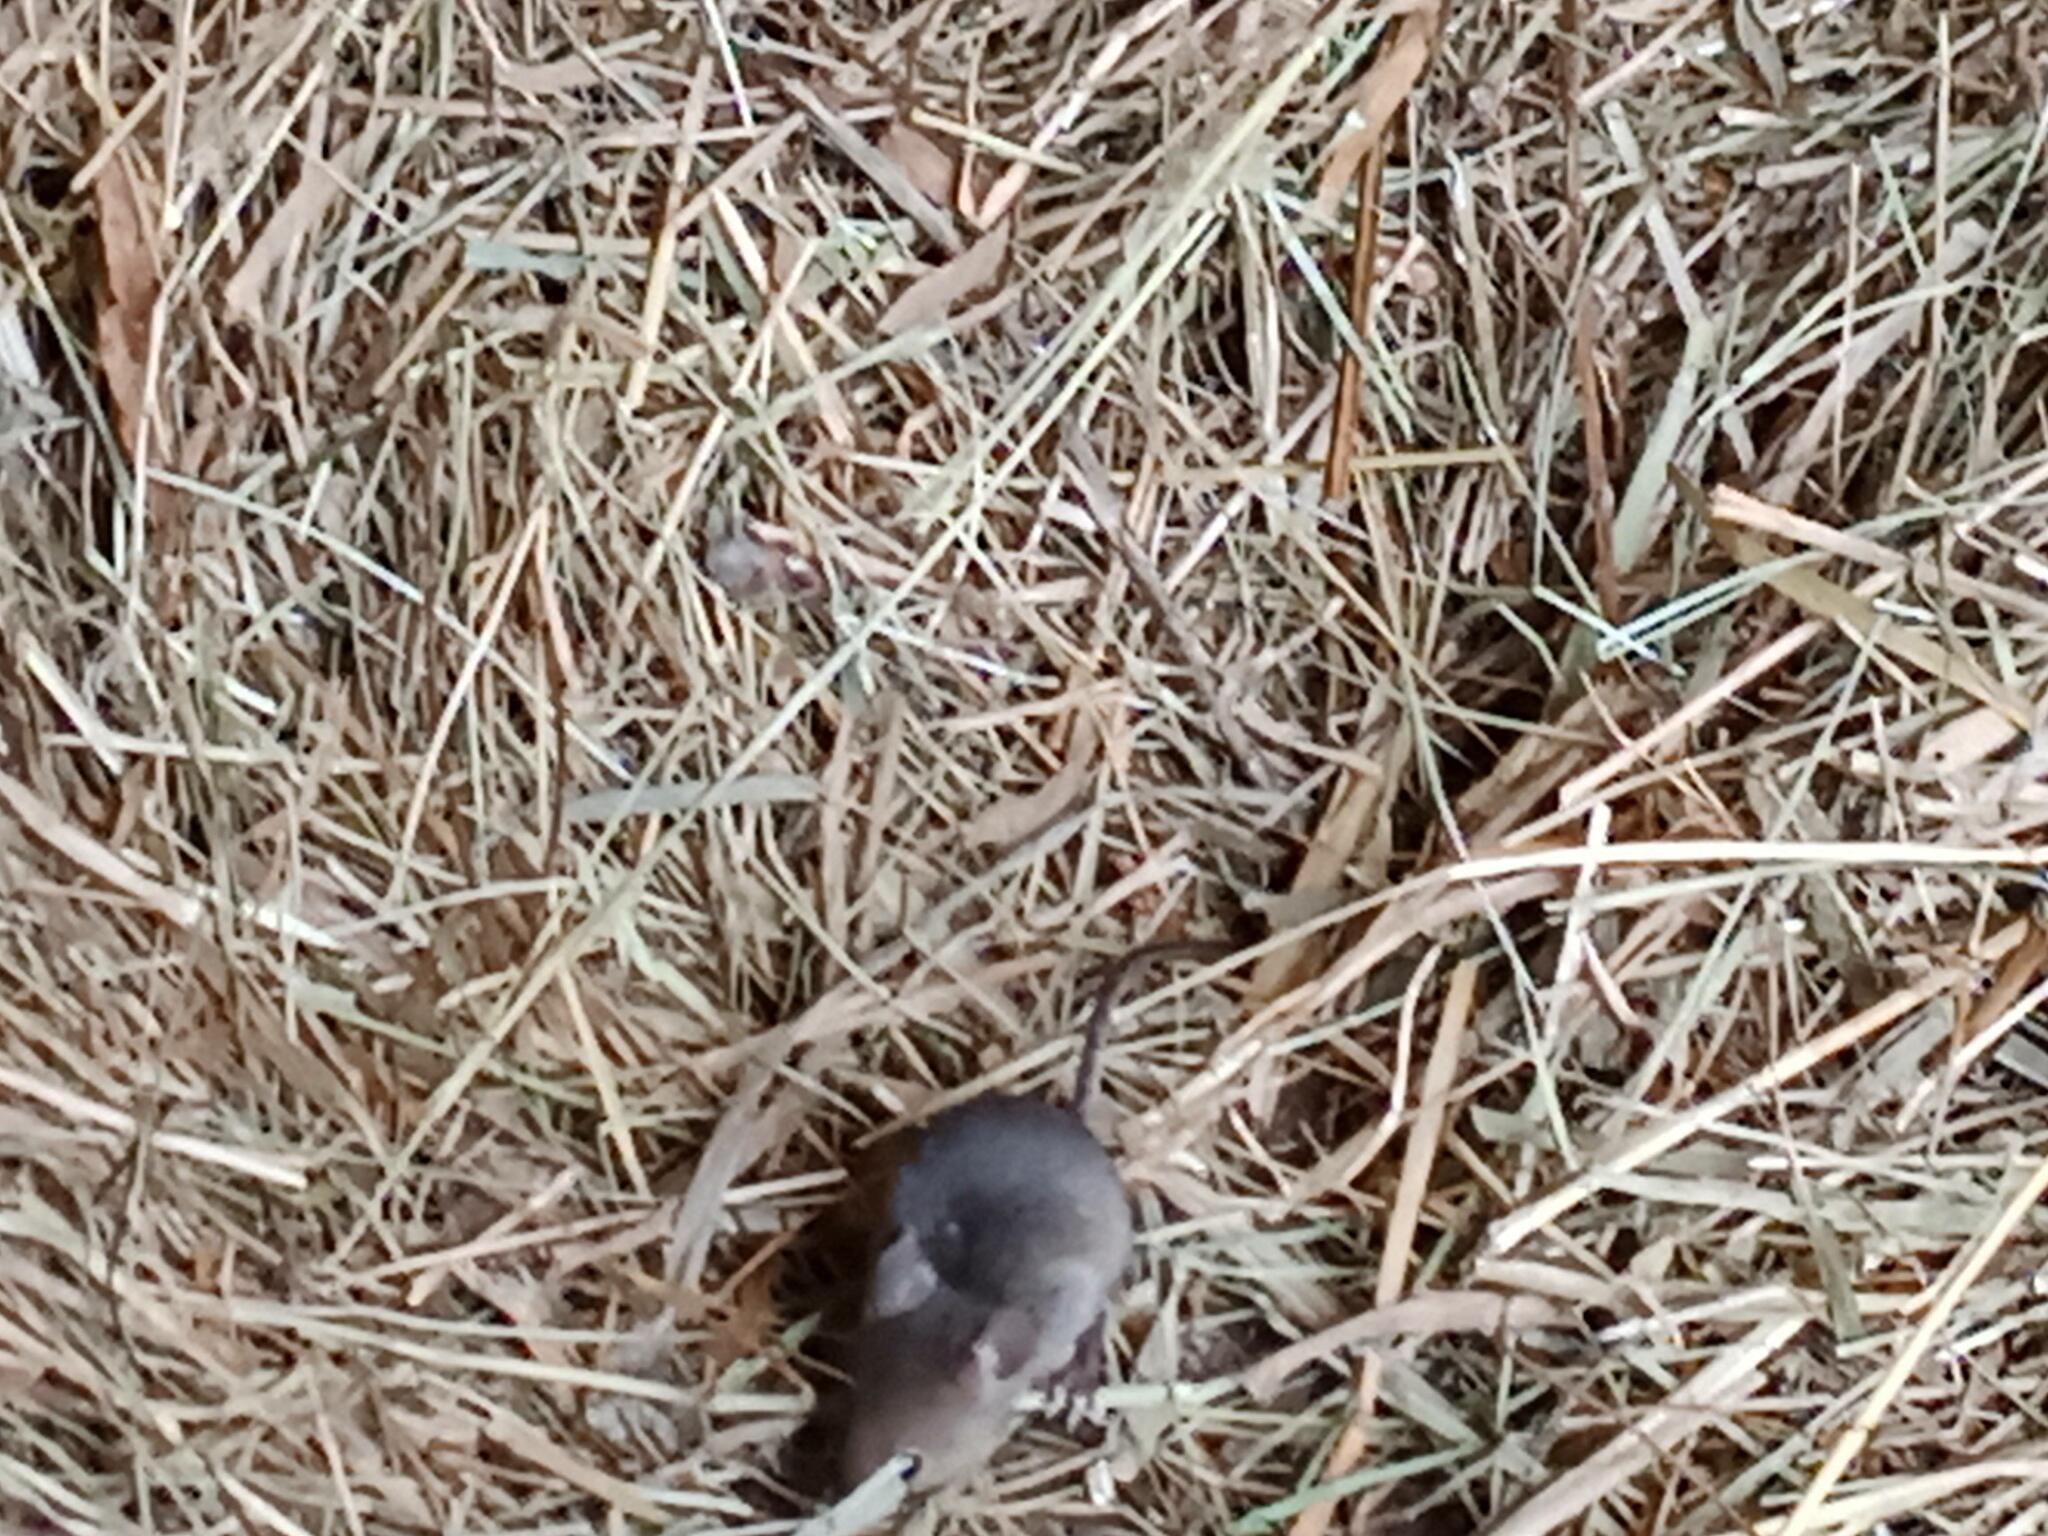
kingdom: Animalia
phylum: Chordata
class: Mammalia
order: Rodentia
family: Muridae
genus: Mus
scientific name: Mus musculus
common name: House mouse
